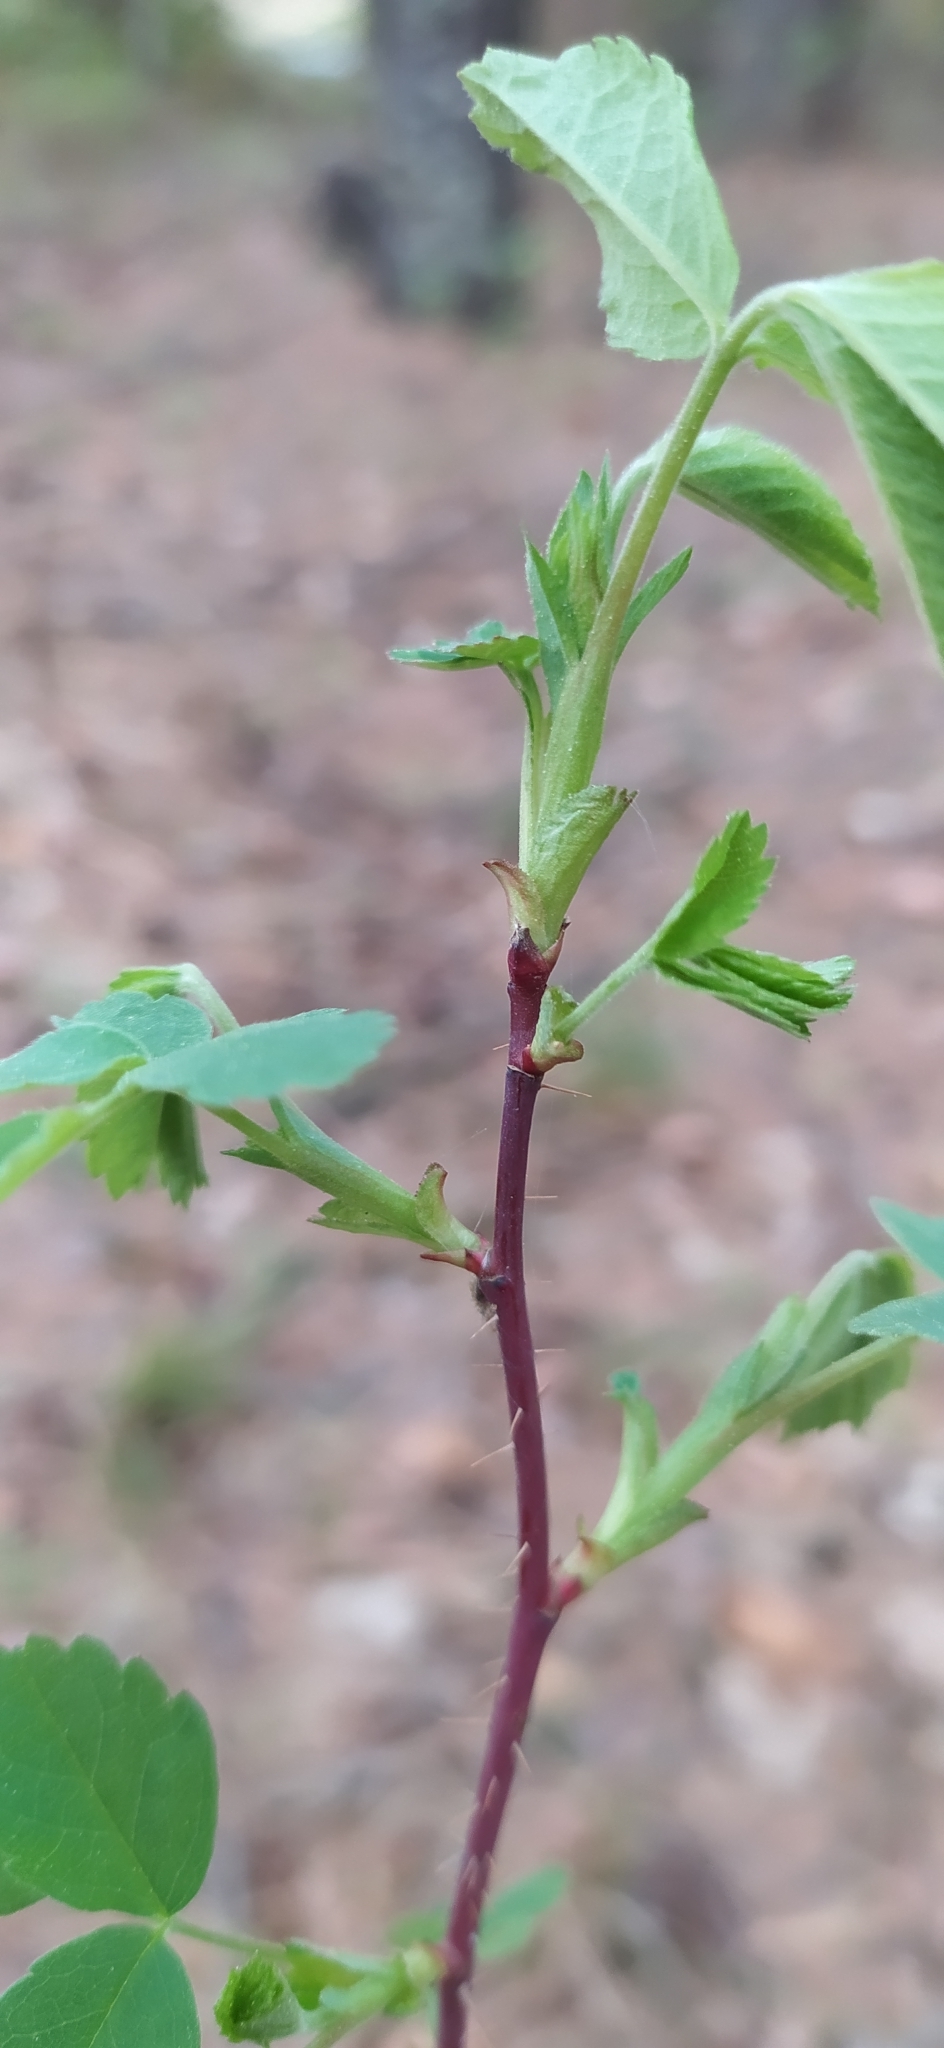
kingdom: Plantae
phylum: Tracheophyta
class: Magnoliopsida
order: Rosales
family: Rosaceae
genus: Rosa
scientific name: Rosa acicularis
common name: Prickly rose
